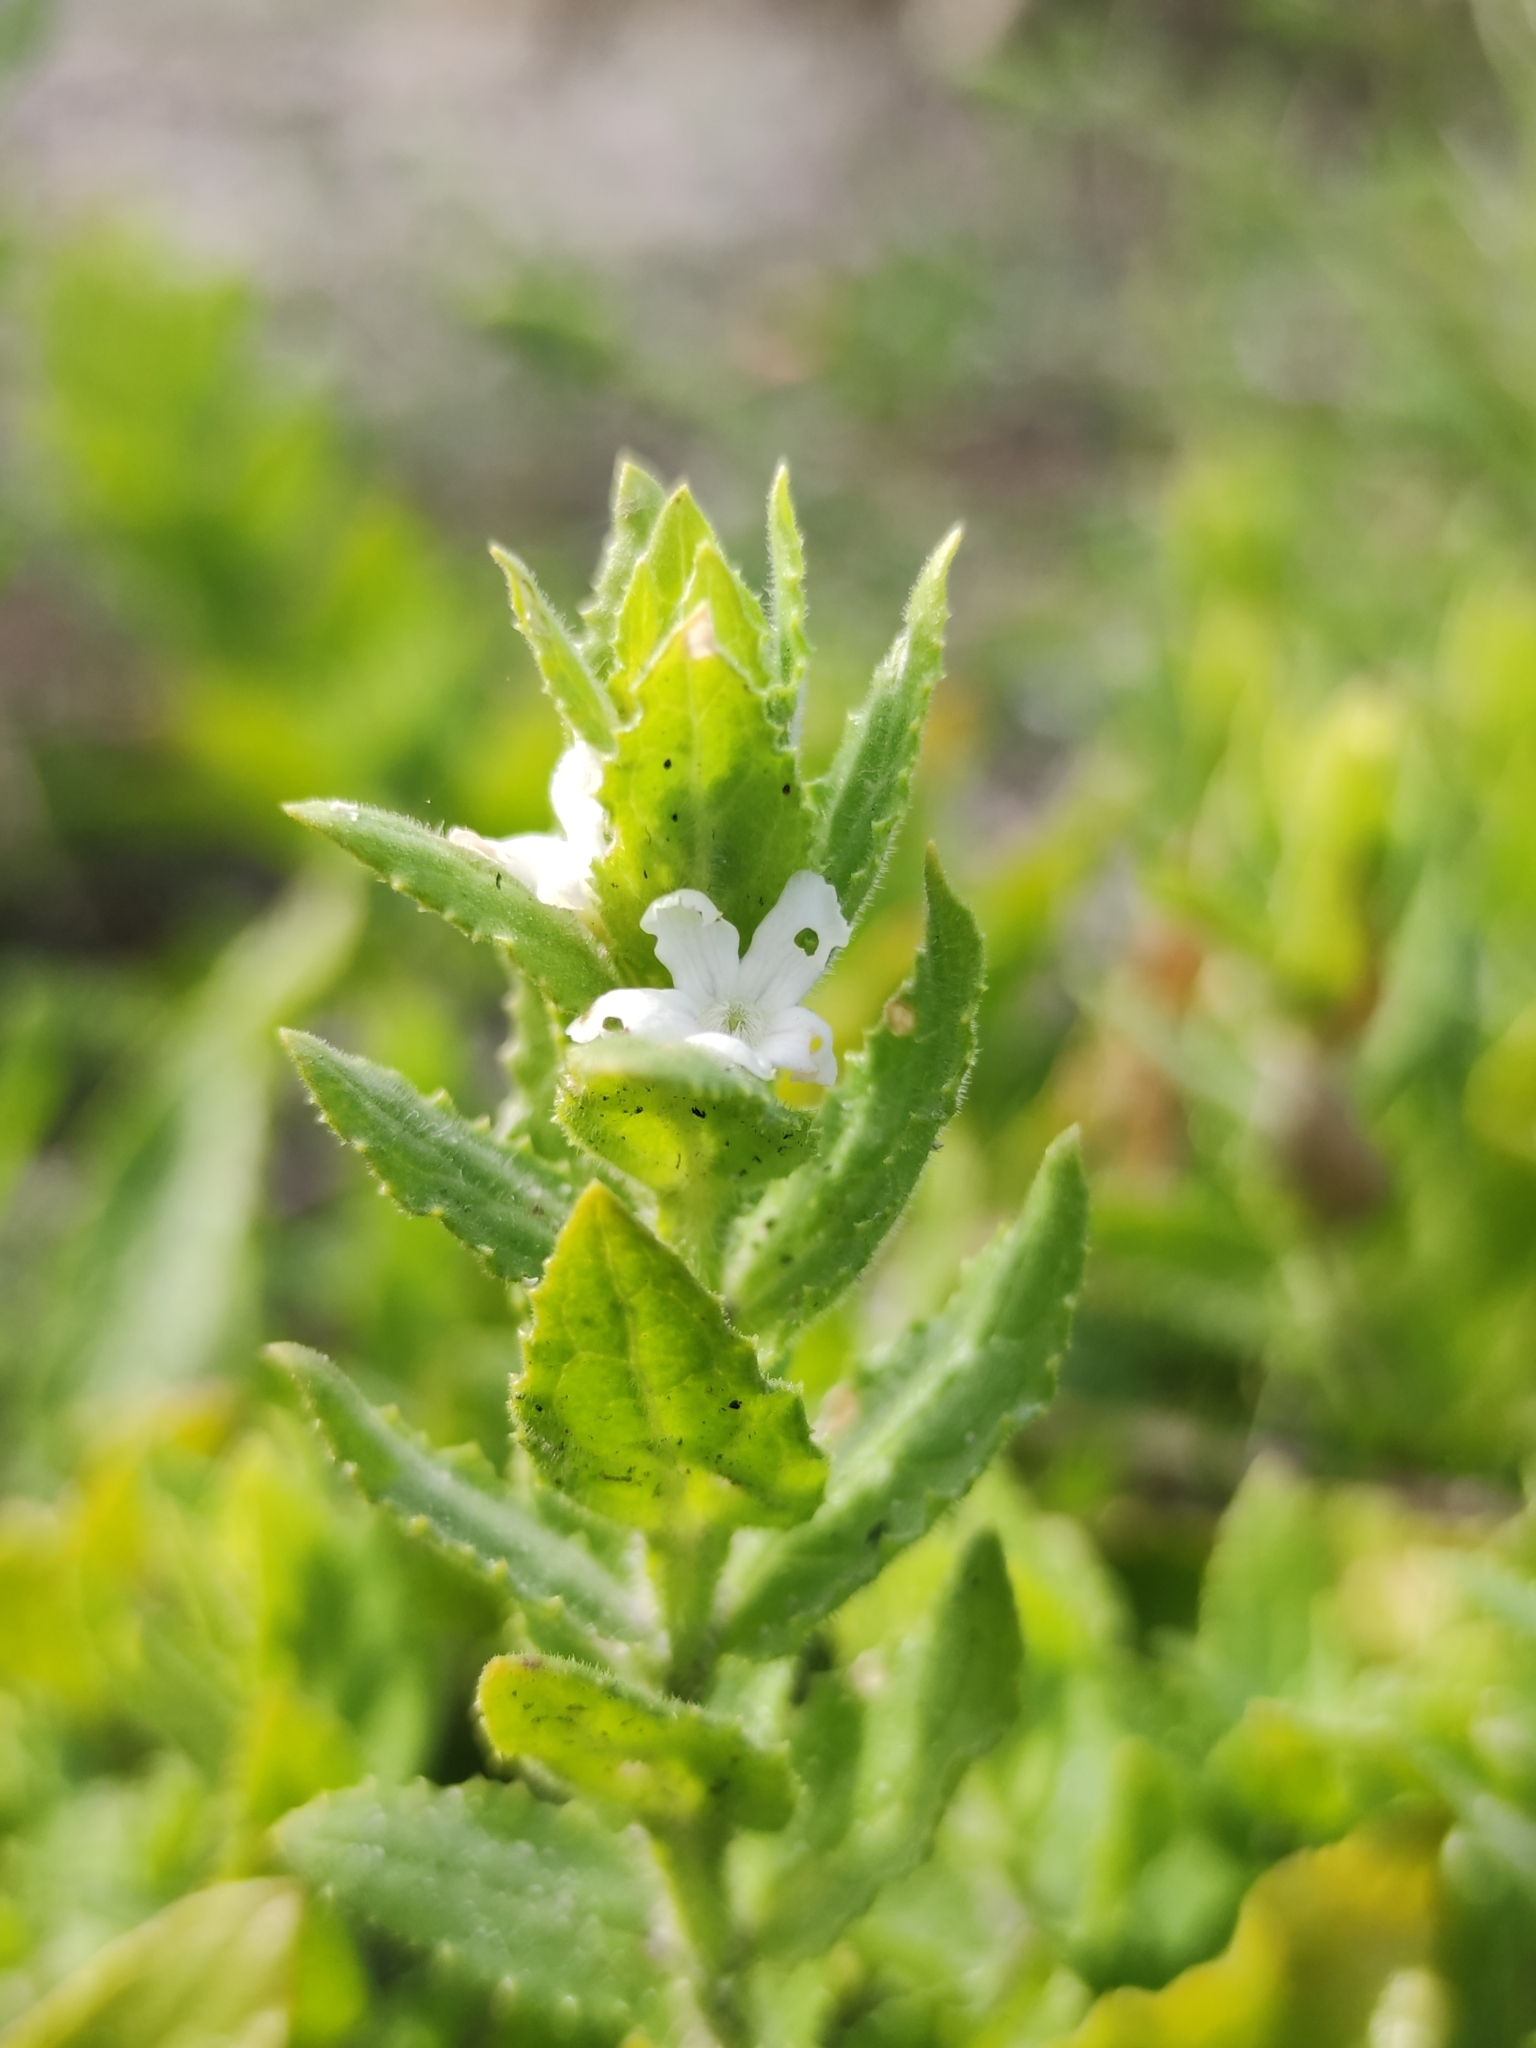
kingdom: Plantae
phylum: Tracheophyta
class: Magnoliopsida
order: Lamiales
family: Scrophulariaceae
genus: Oftia
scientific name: Oftia africana
